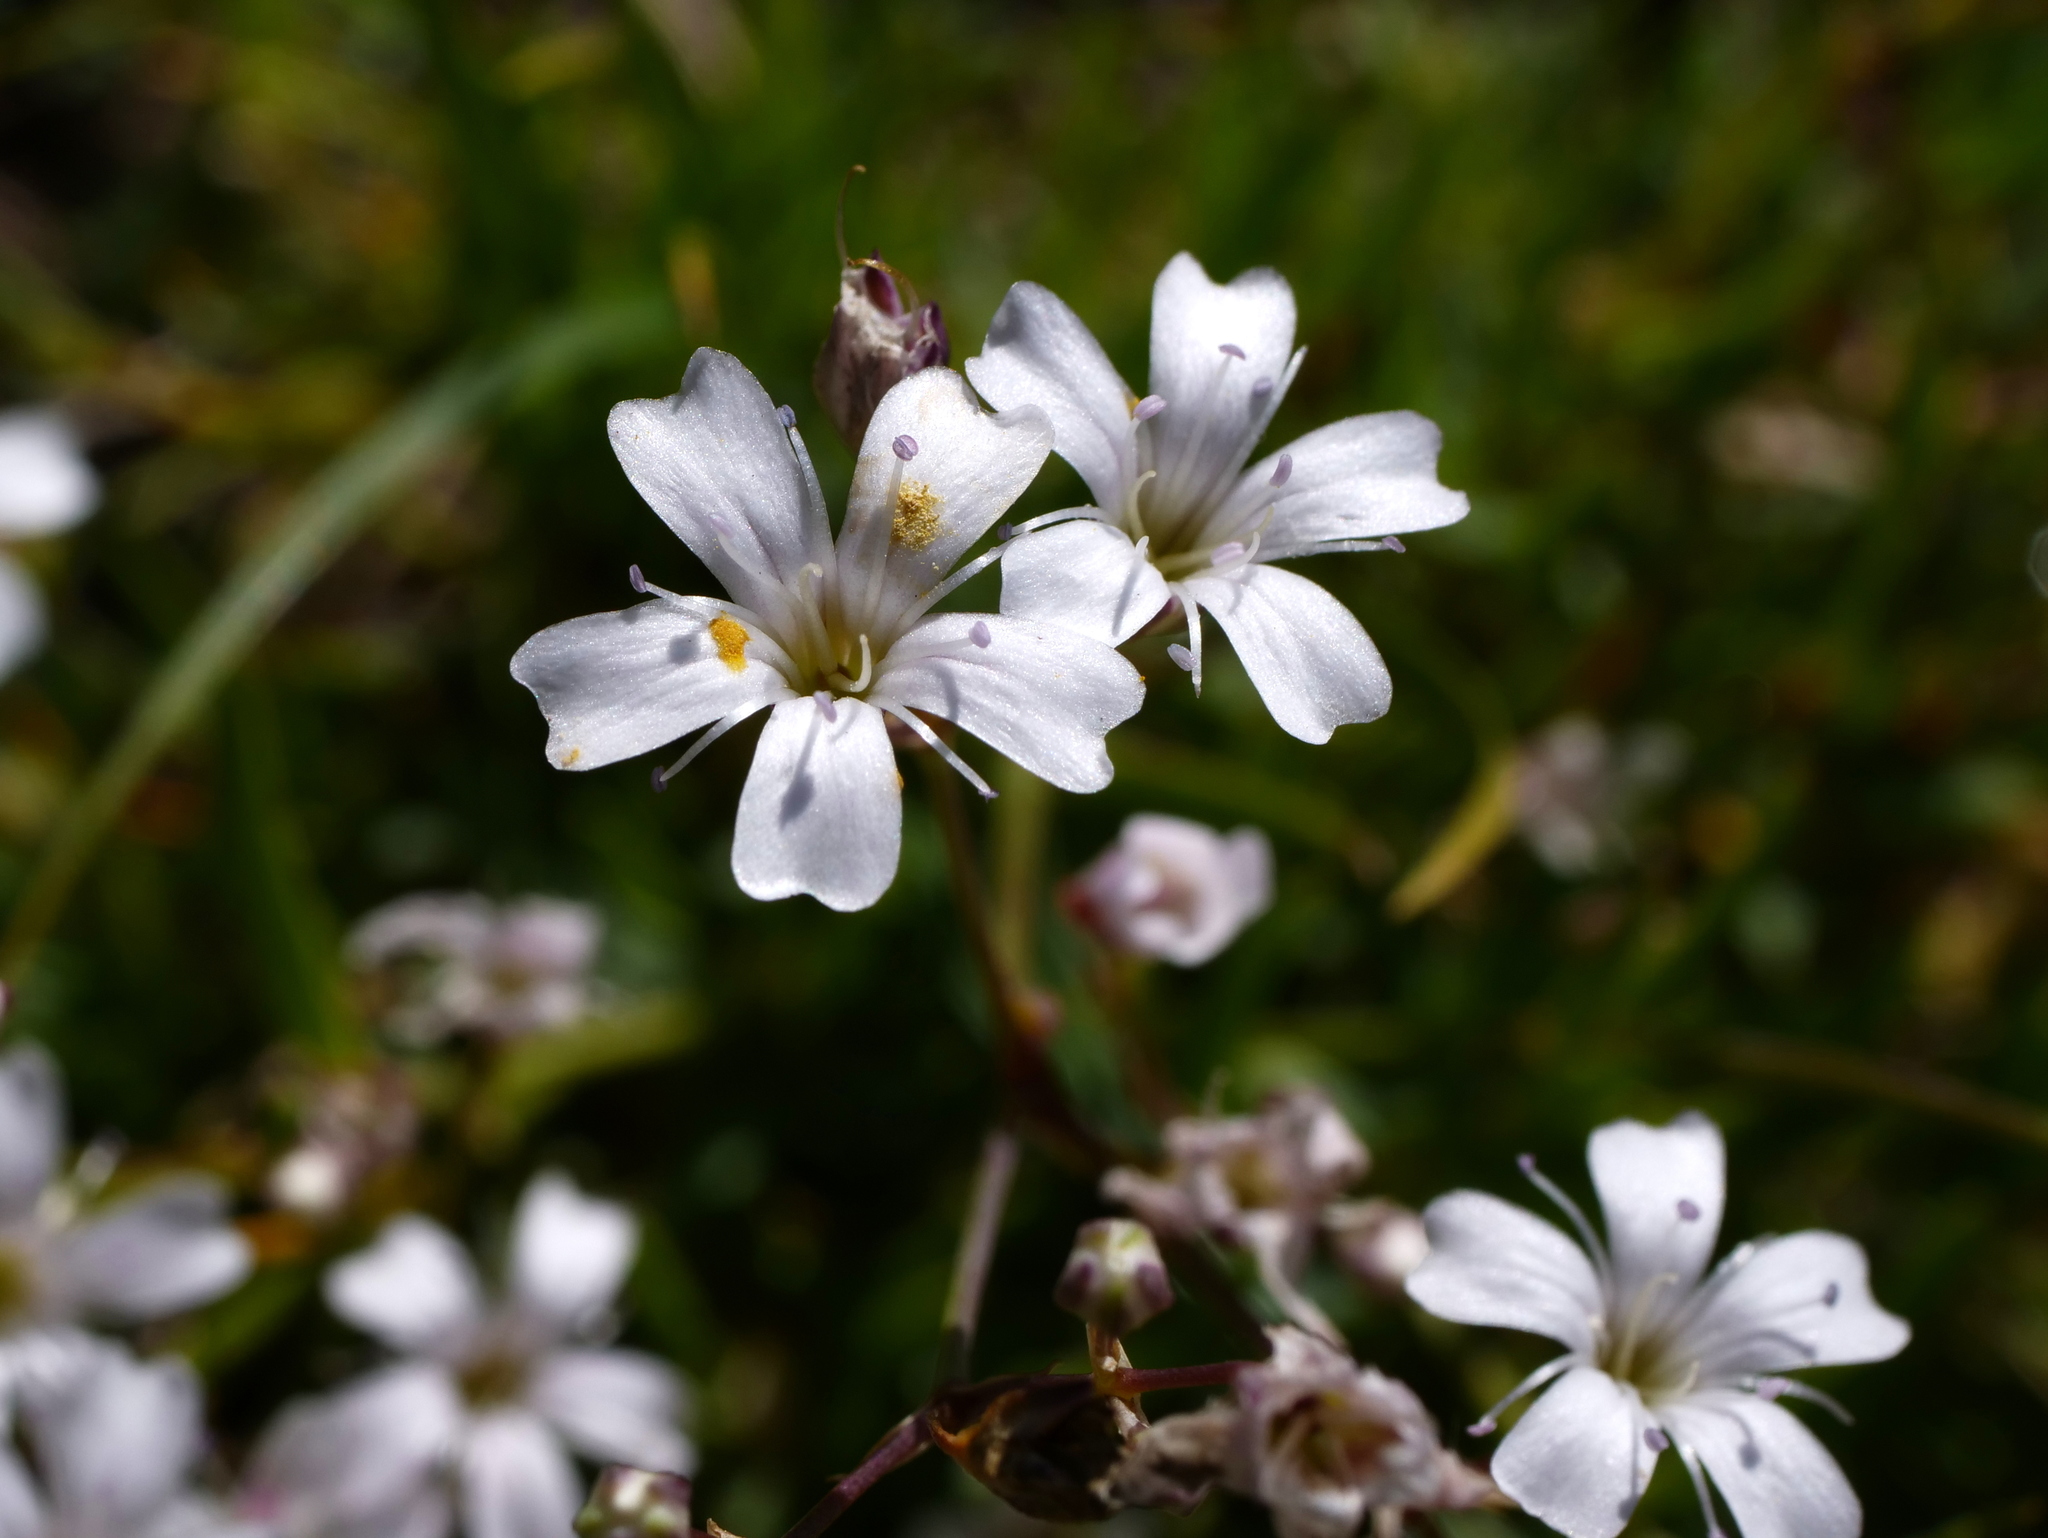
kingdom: Plantae
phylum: Tracheophyta
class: Magnoliopsida
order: Caryophyllales
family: Caryophyllaceae
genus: Gypsophila
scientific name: Gypsophila repens
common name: Creeping baby's-breath
